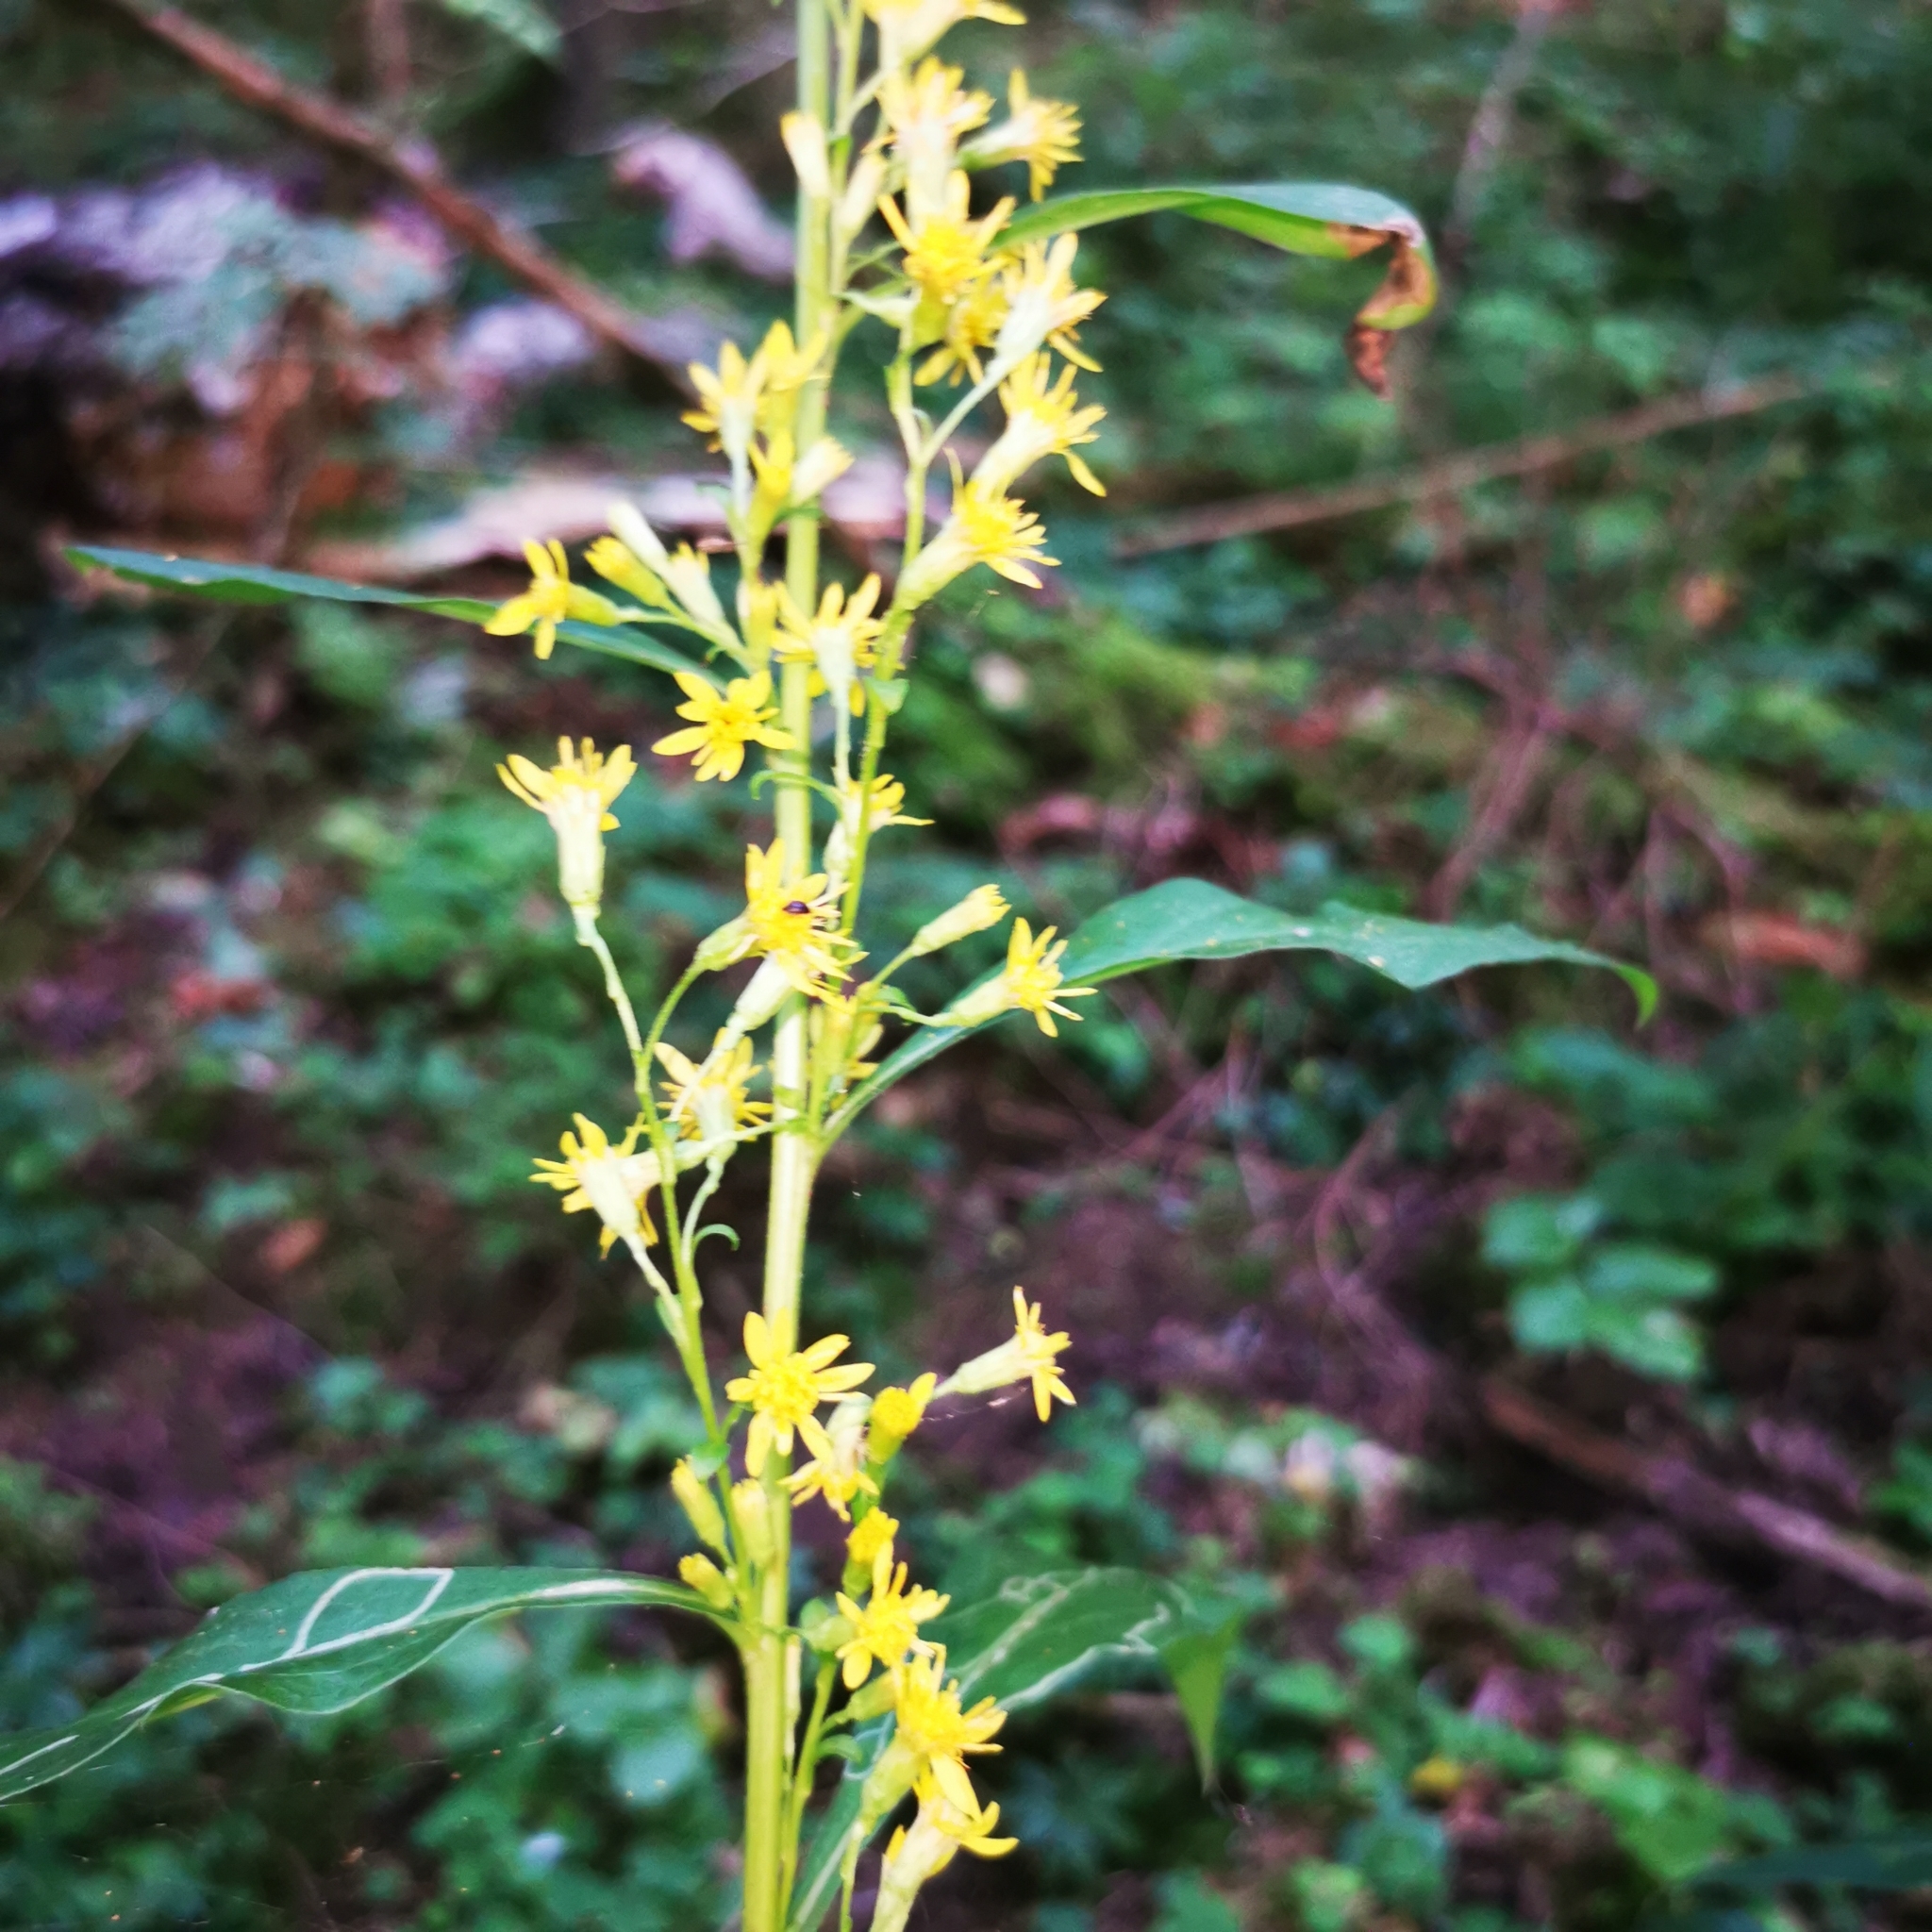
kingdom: Plantae
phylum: Tracheophyta
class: Magnoliopsida
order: Asterales
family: Asteraceae
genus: Solidago
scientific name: Solidago virgaurea
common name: Goldenrod
